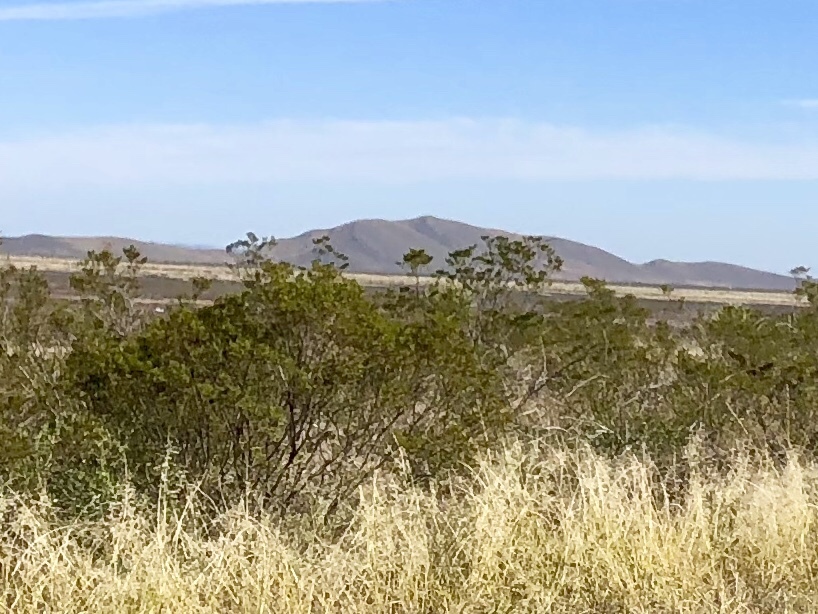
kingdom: Plantae
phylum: Tracheophyta
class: Magnoliopsida
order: Zygophyllales
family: Zygophyllaceae
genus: Larrea
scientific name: Larrea tridentata
